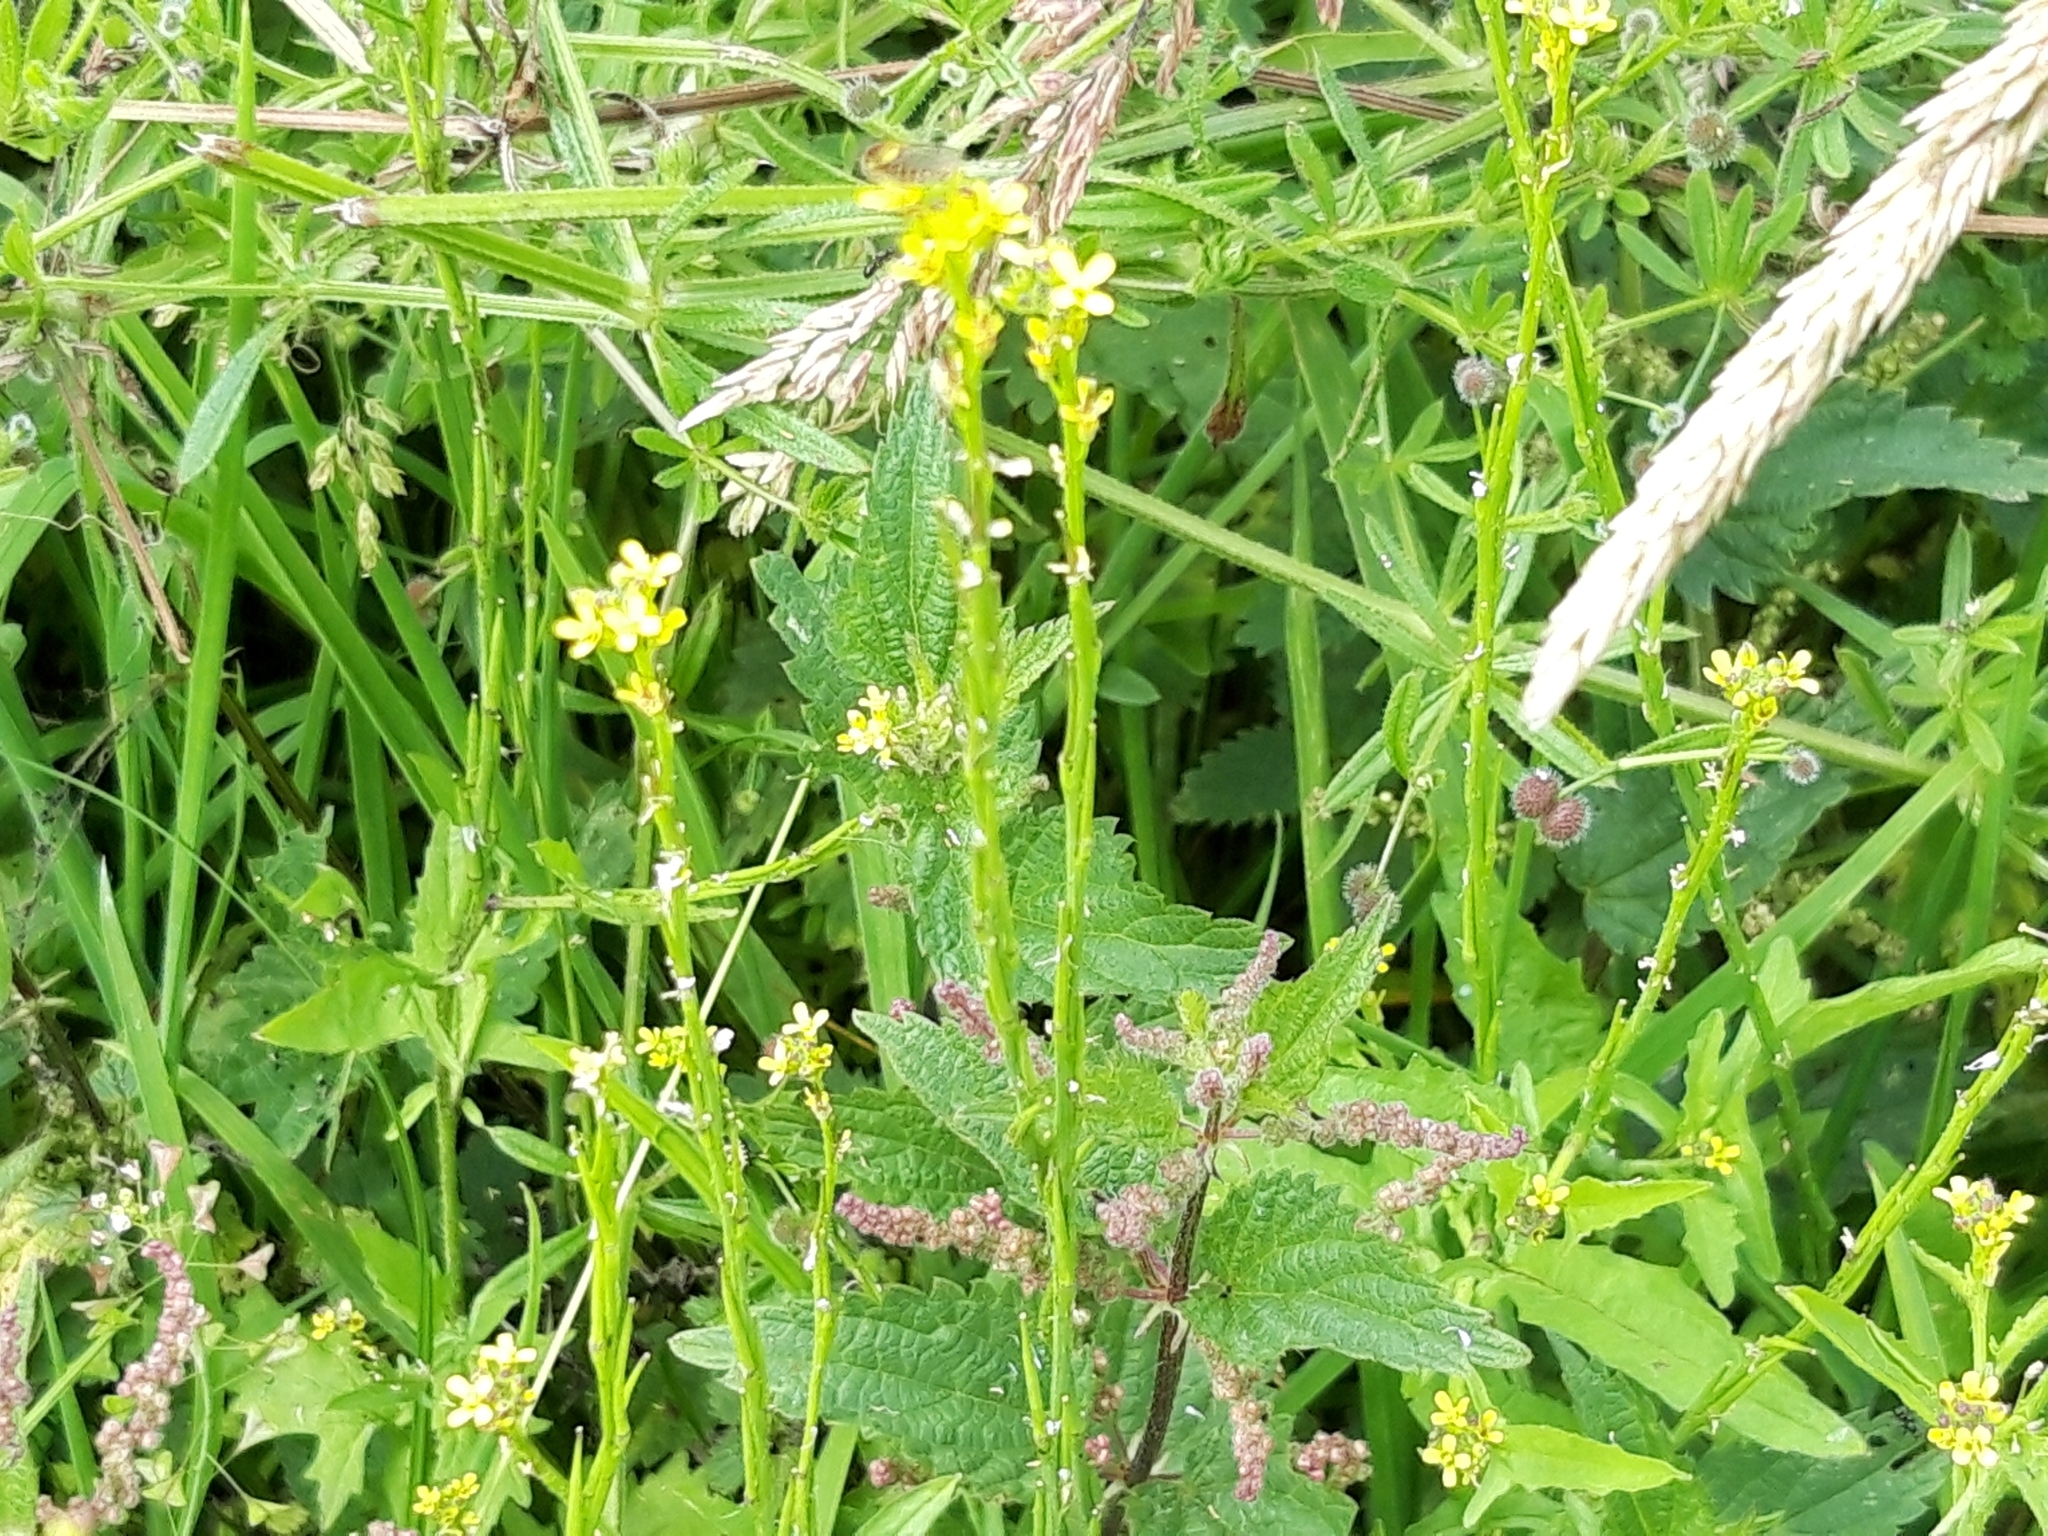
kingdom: Plantae
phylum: Tracheophyta
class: Magnoliopsida
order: Brassicales
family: Brassicaceae
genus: Sisymbrium
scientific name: Sisymbrium officinale
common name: Hedge mustard
